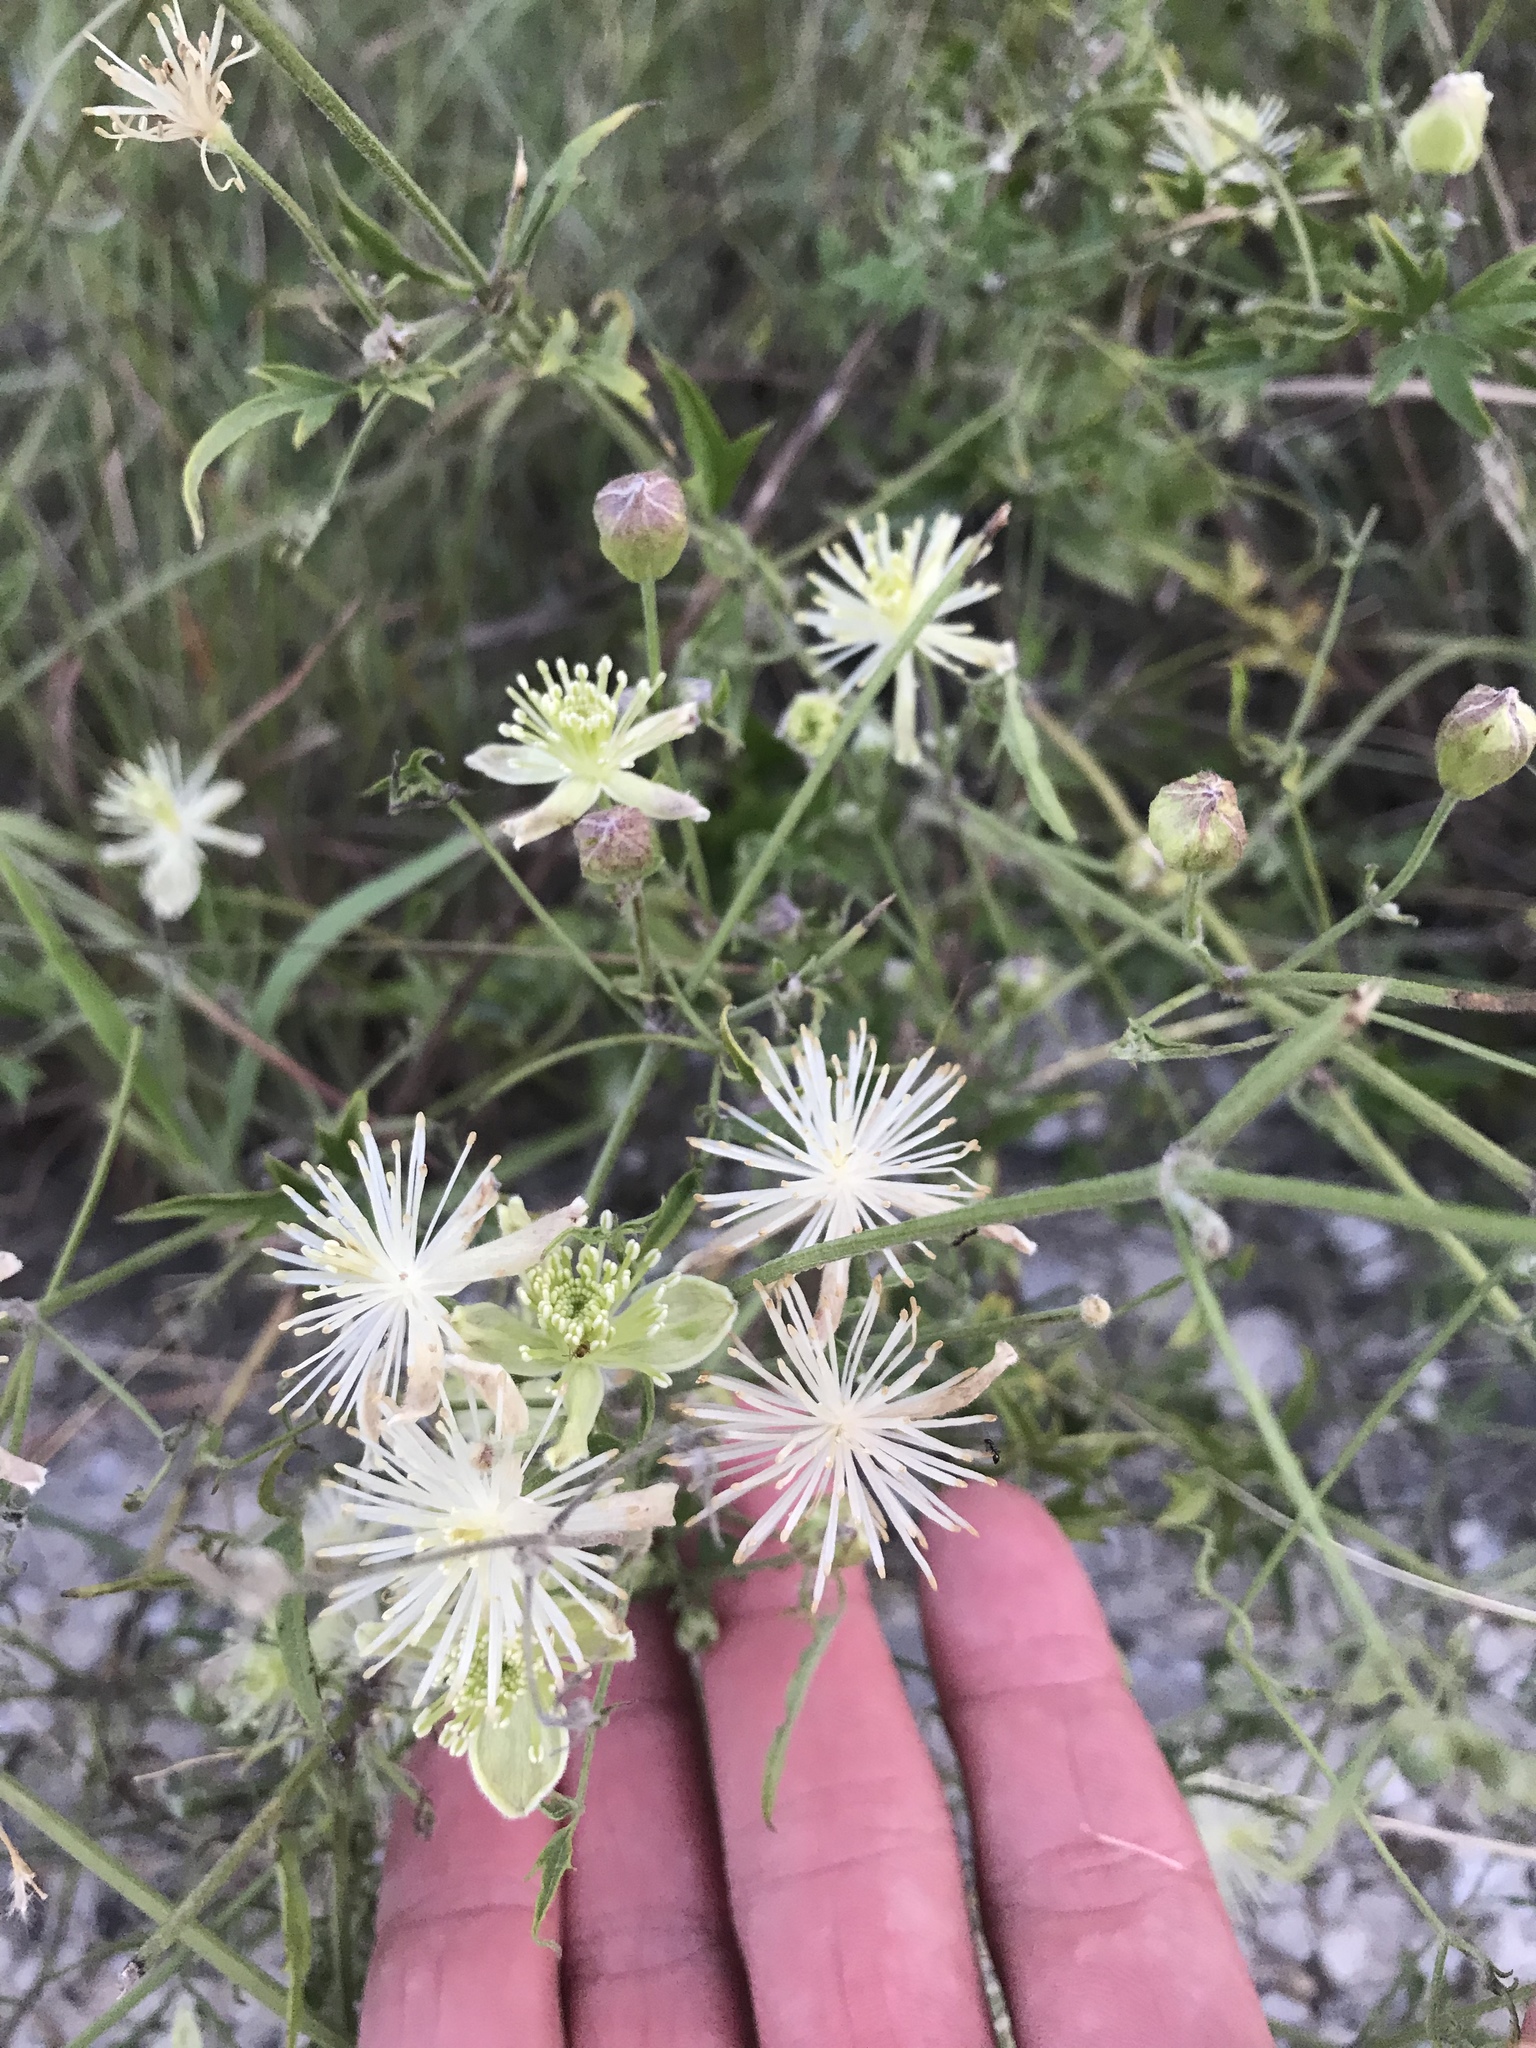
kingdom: Plantae
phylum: Tracheophyta
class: Magnoliopsida
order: Ranunculales
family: Ranunculaceae
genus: Clematis
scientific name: Clematis drummondii
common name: Texas virgin's bower
